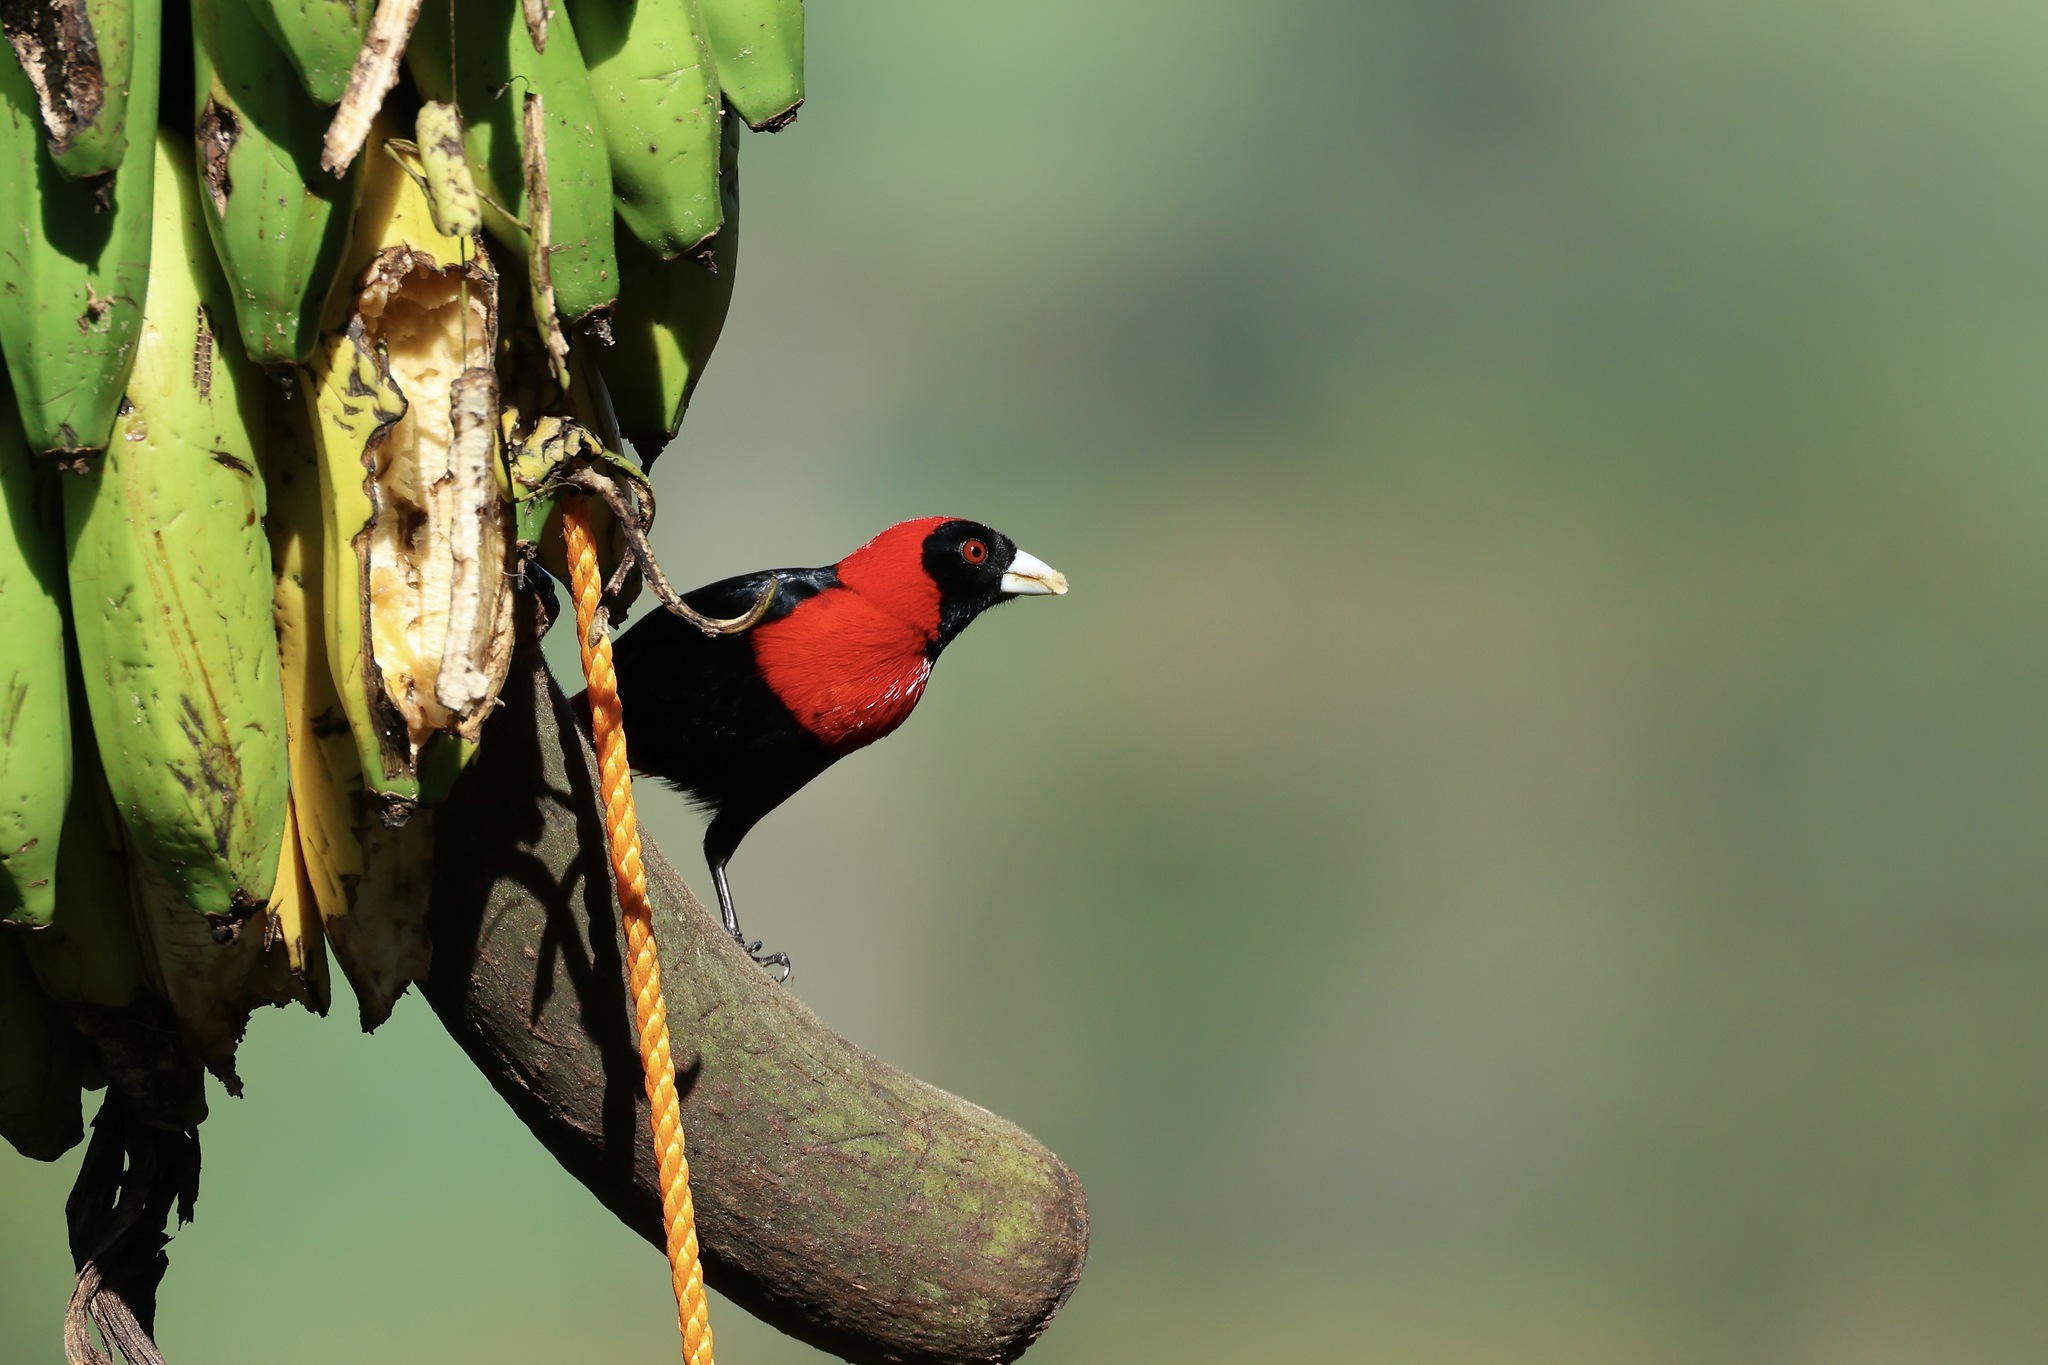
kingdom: Animalia
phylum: Chordata
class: Aves
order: Passeriformes
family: Thraupidae
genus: Ramphocelus
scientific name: Ramphocelus sanguinolentus
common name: Crimson-collared tanager
